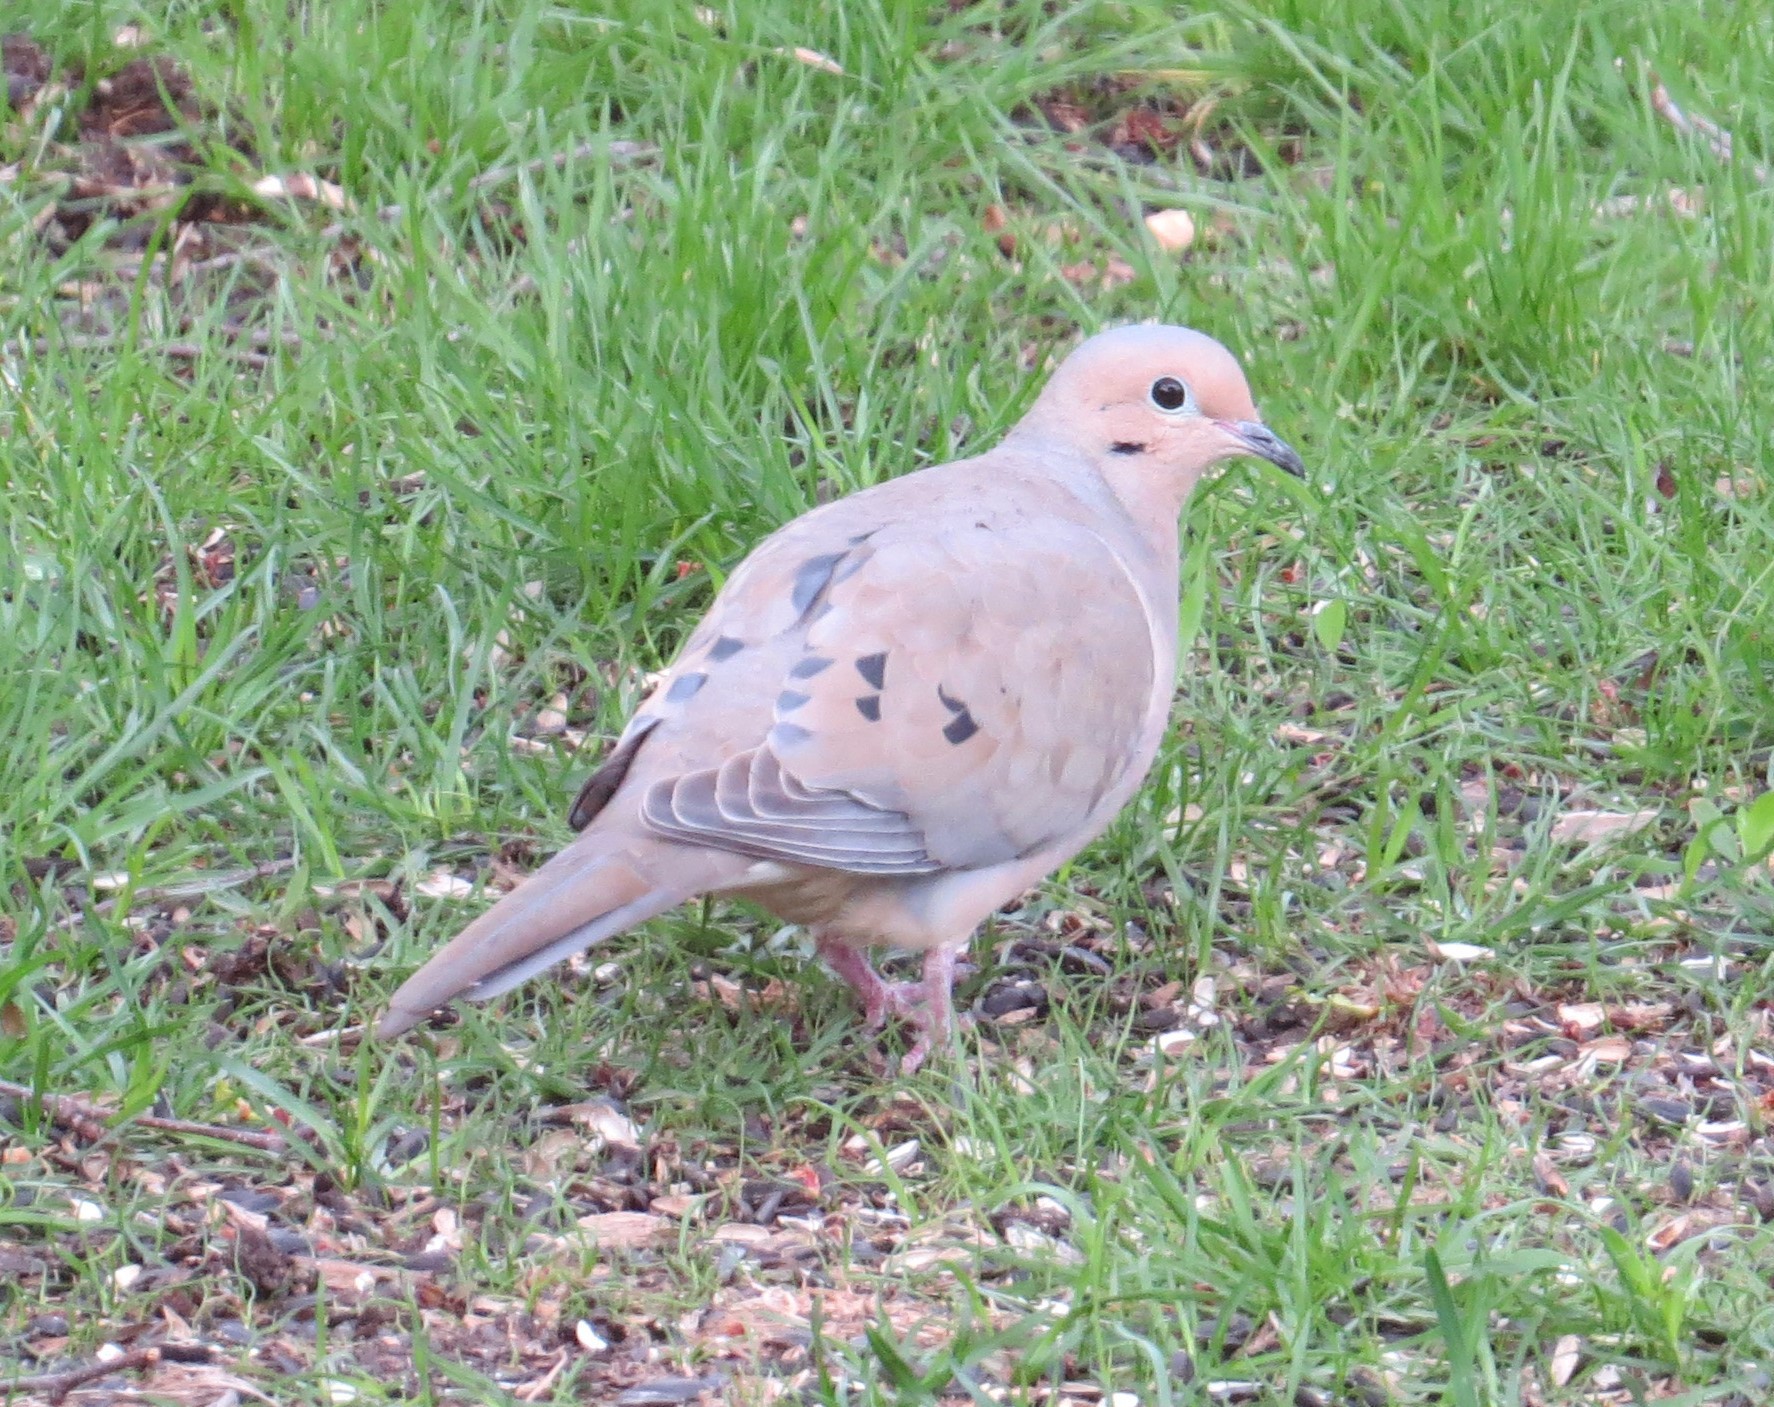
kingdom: Animalia
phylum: Chordata
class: Aves
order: Columbiformes
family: Columbidae
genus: Zenaida
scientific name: Zenaida macroura
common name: Mourning dove
